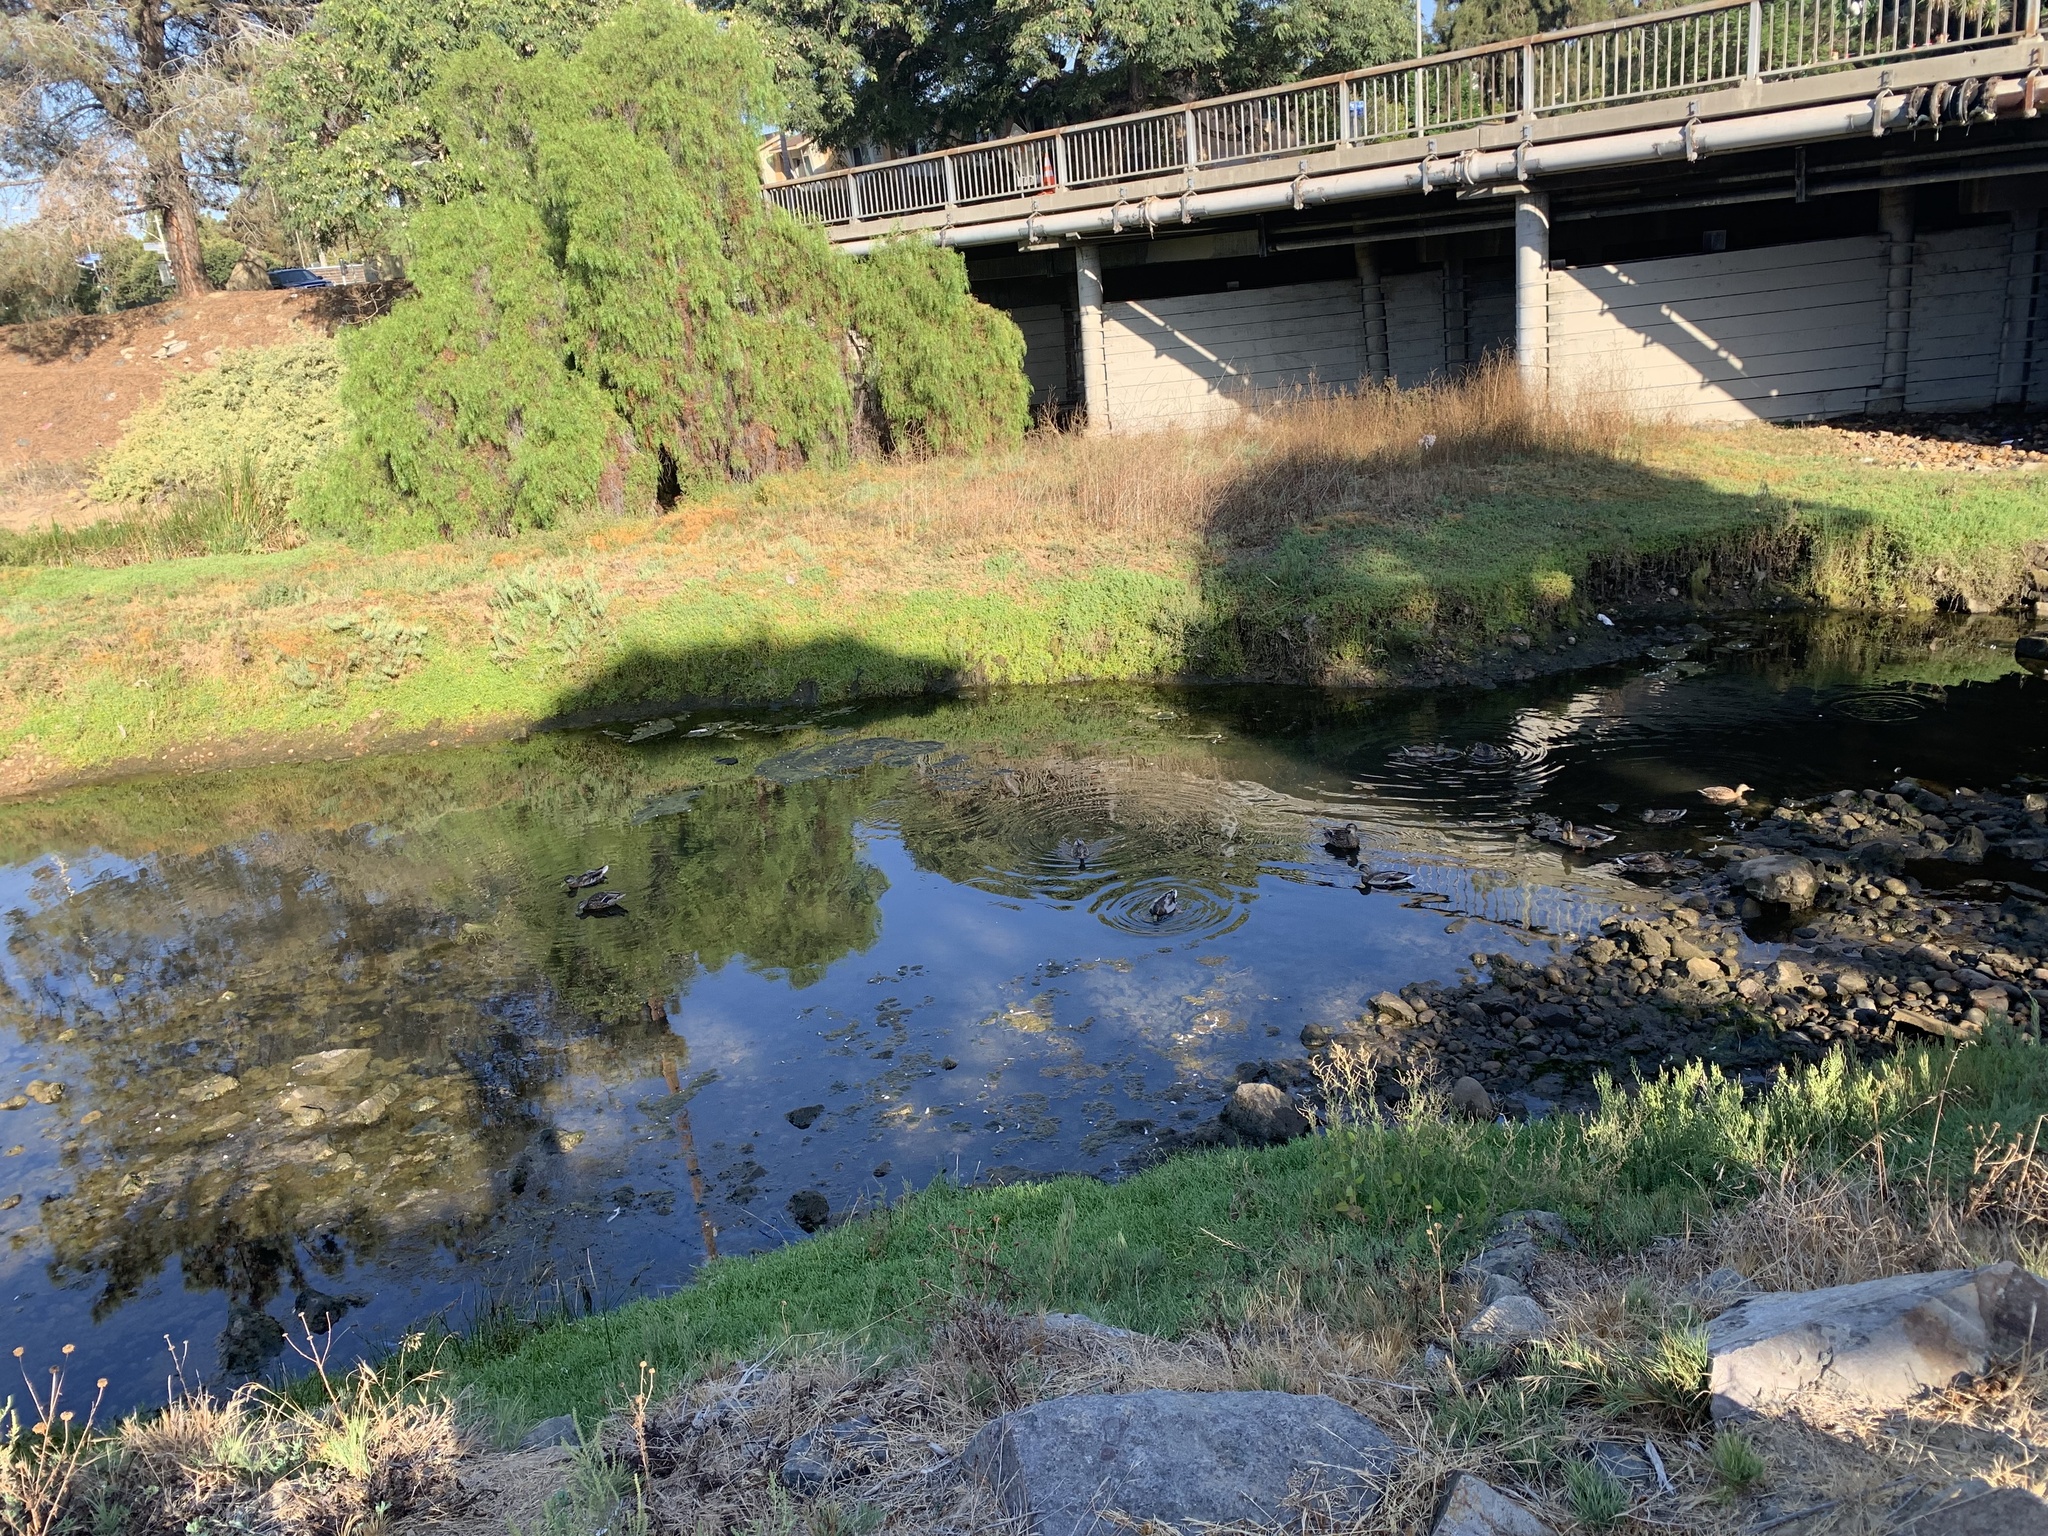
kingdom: Animalia
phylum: Chordata
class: Aves
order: Anseriformes
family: Anatidae
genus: Anas
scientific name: Anas platyrhynchos
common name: Mallard
